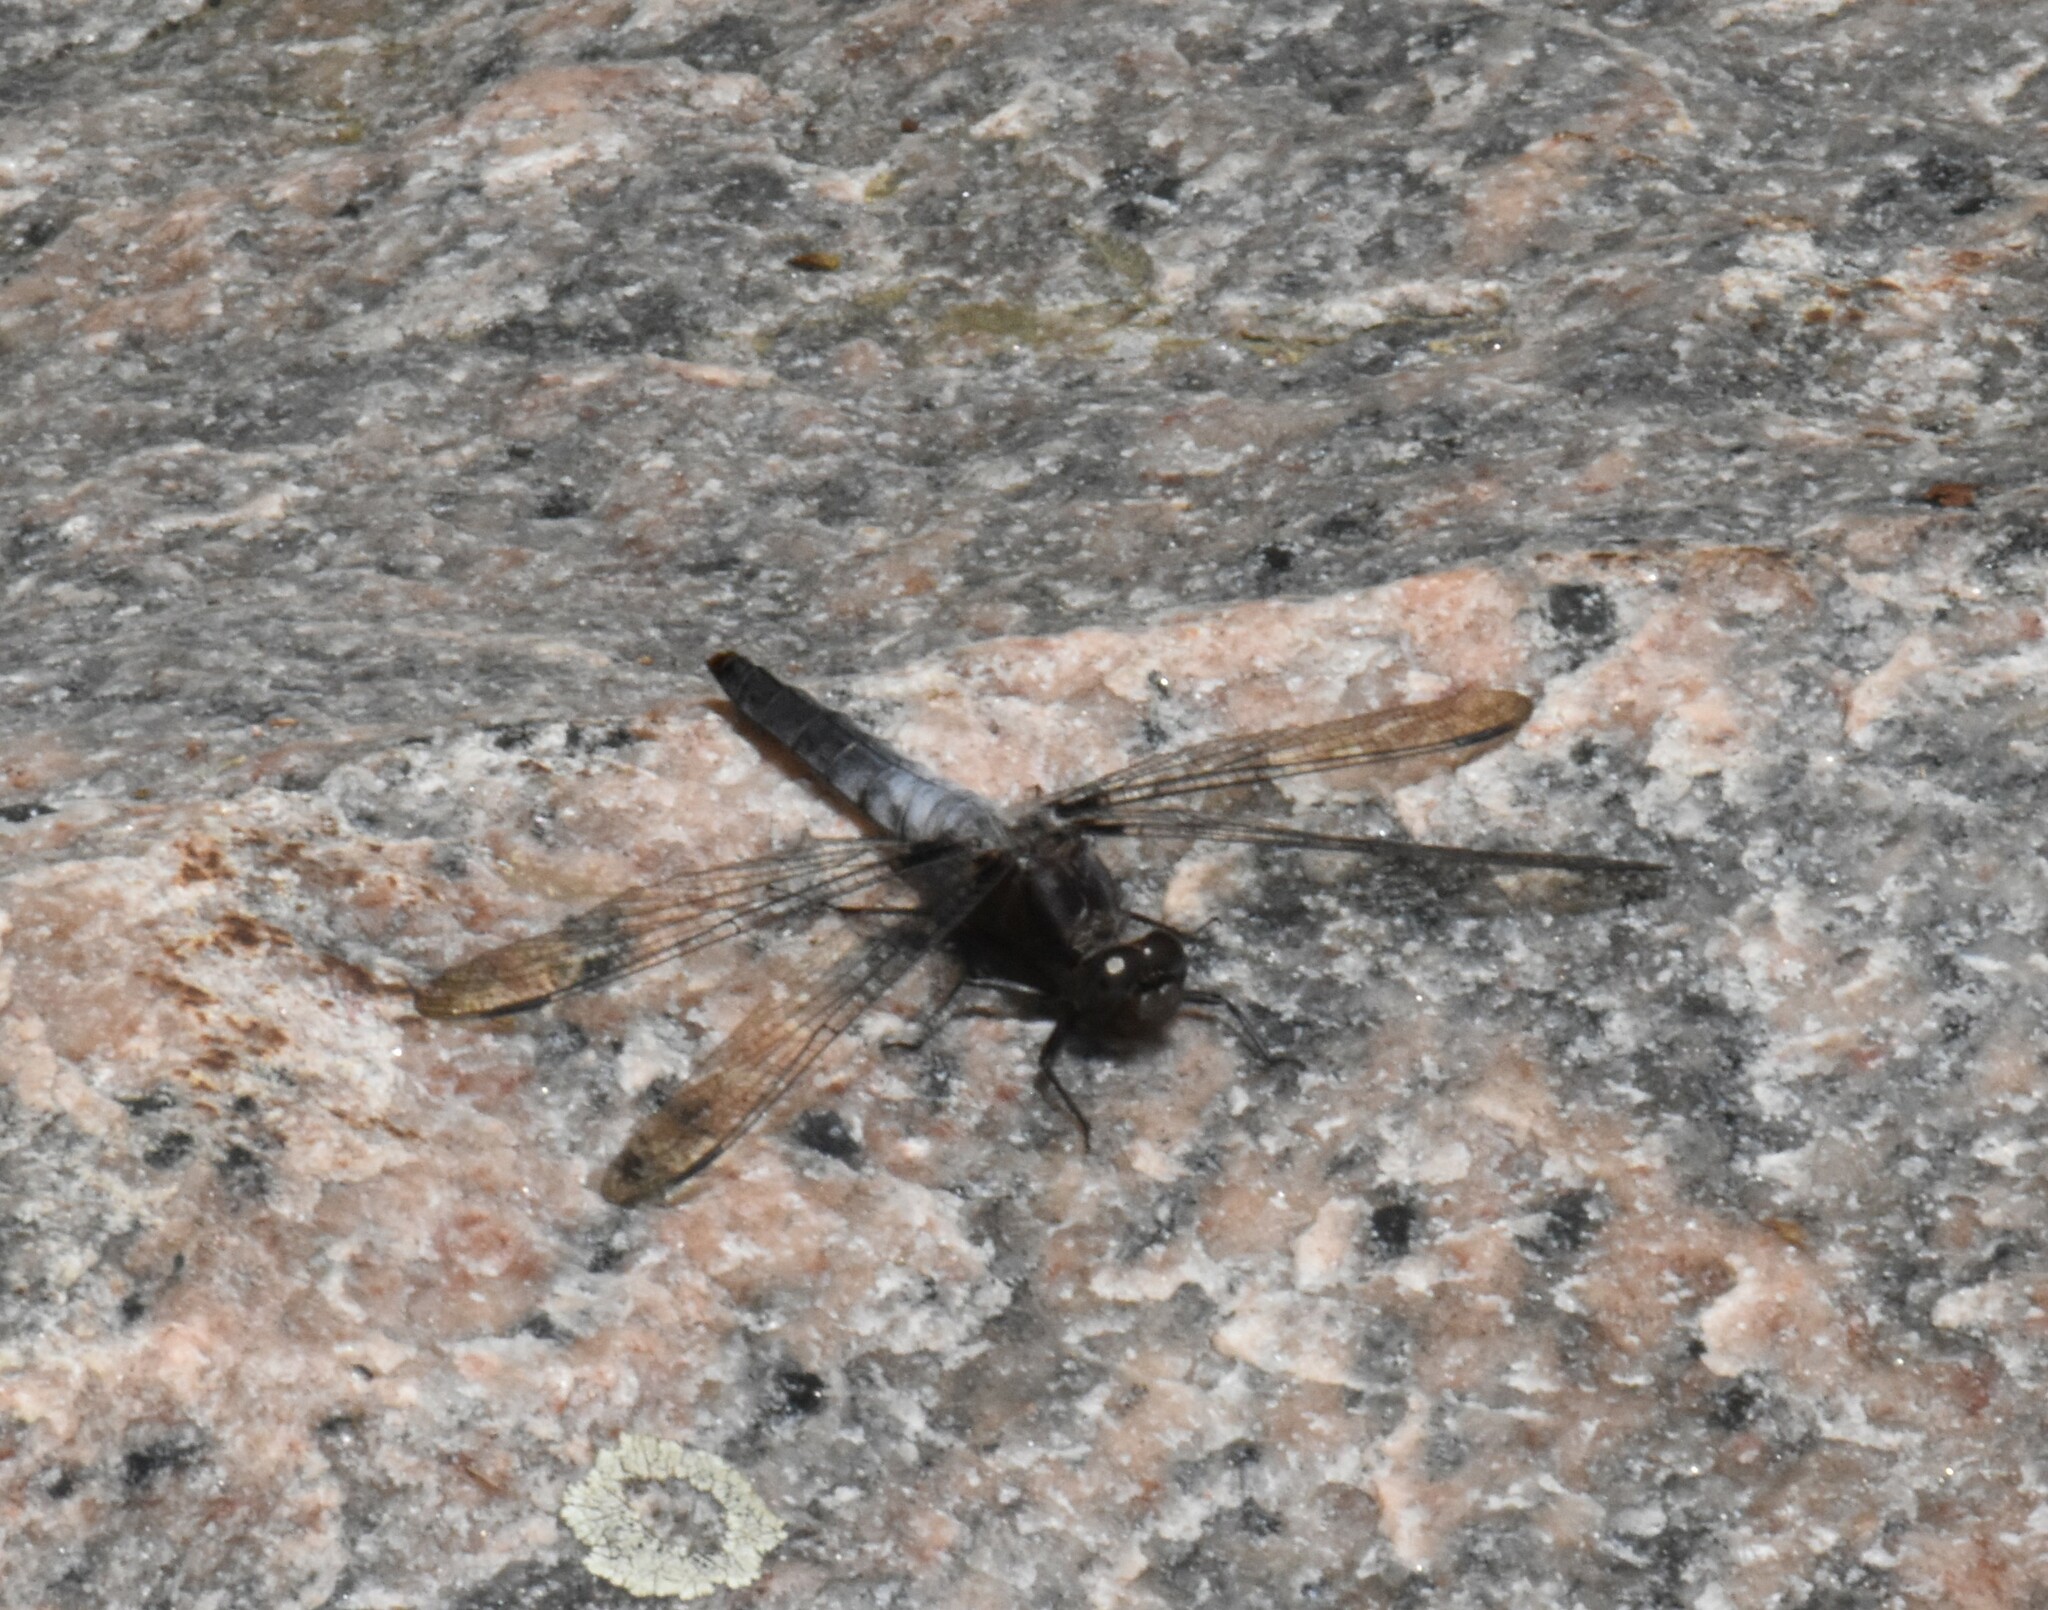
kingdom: Animalia
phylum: Arthropoda
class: Insecta
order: Odonata
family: Libellulidae
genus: Ladona
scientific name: Ladona julia
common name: Chalk-fronted corporal
